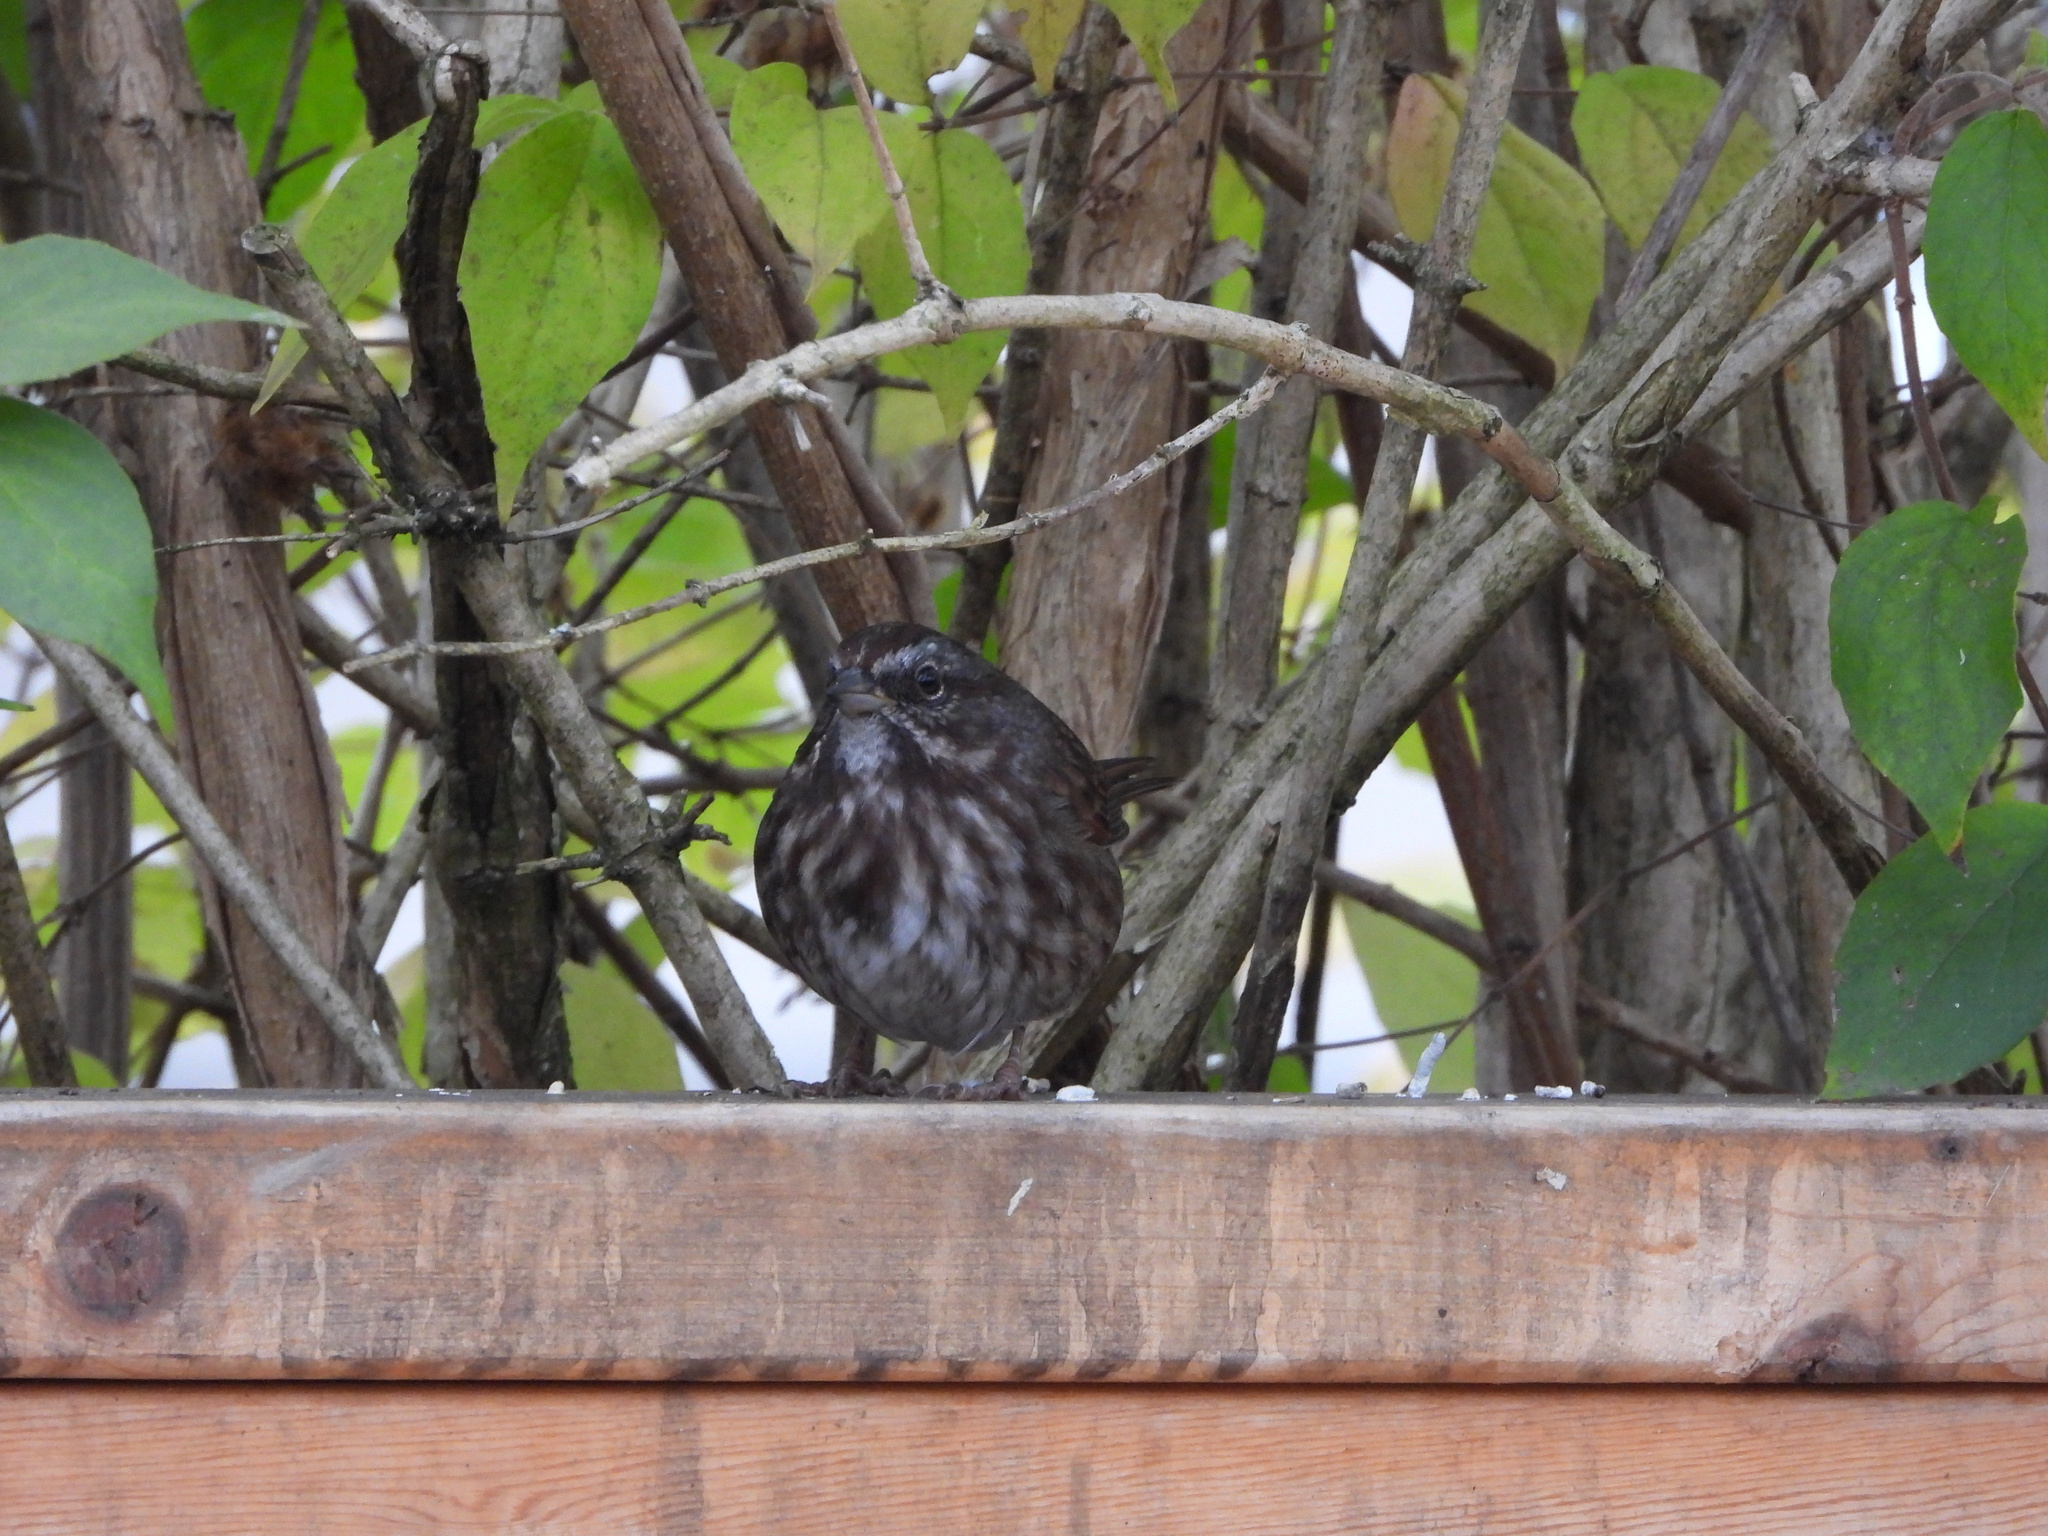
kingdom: Animalia
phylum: Chordata
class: Aves
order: Passeriformes
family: Passerellidae
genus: Melospiza
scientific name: Melospiza melodia
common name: Song sparrow
